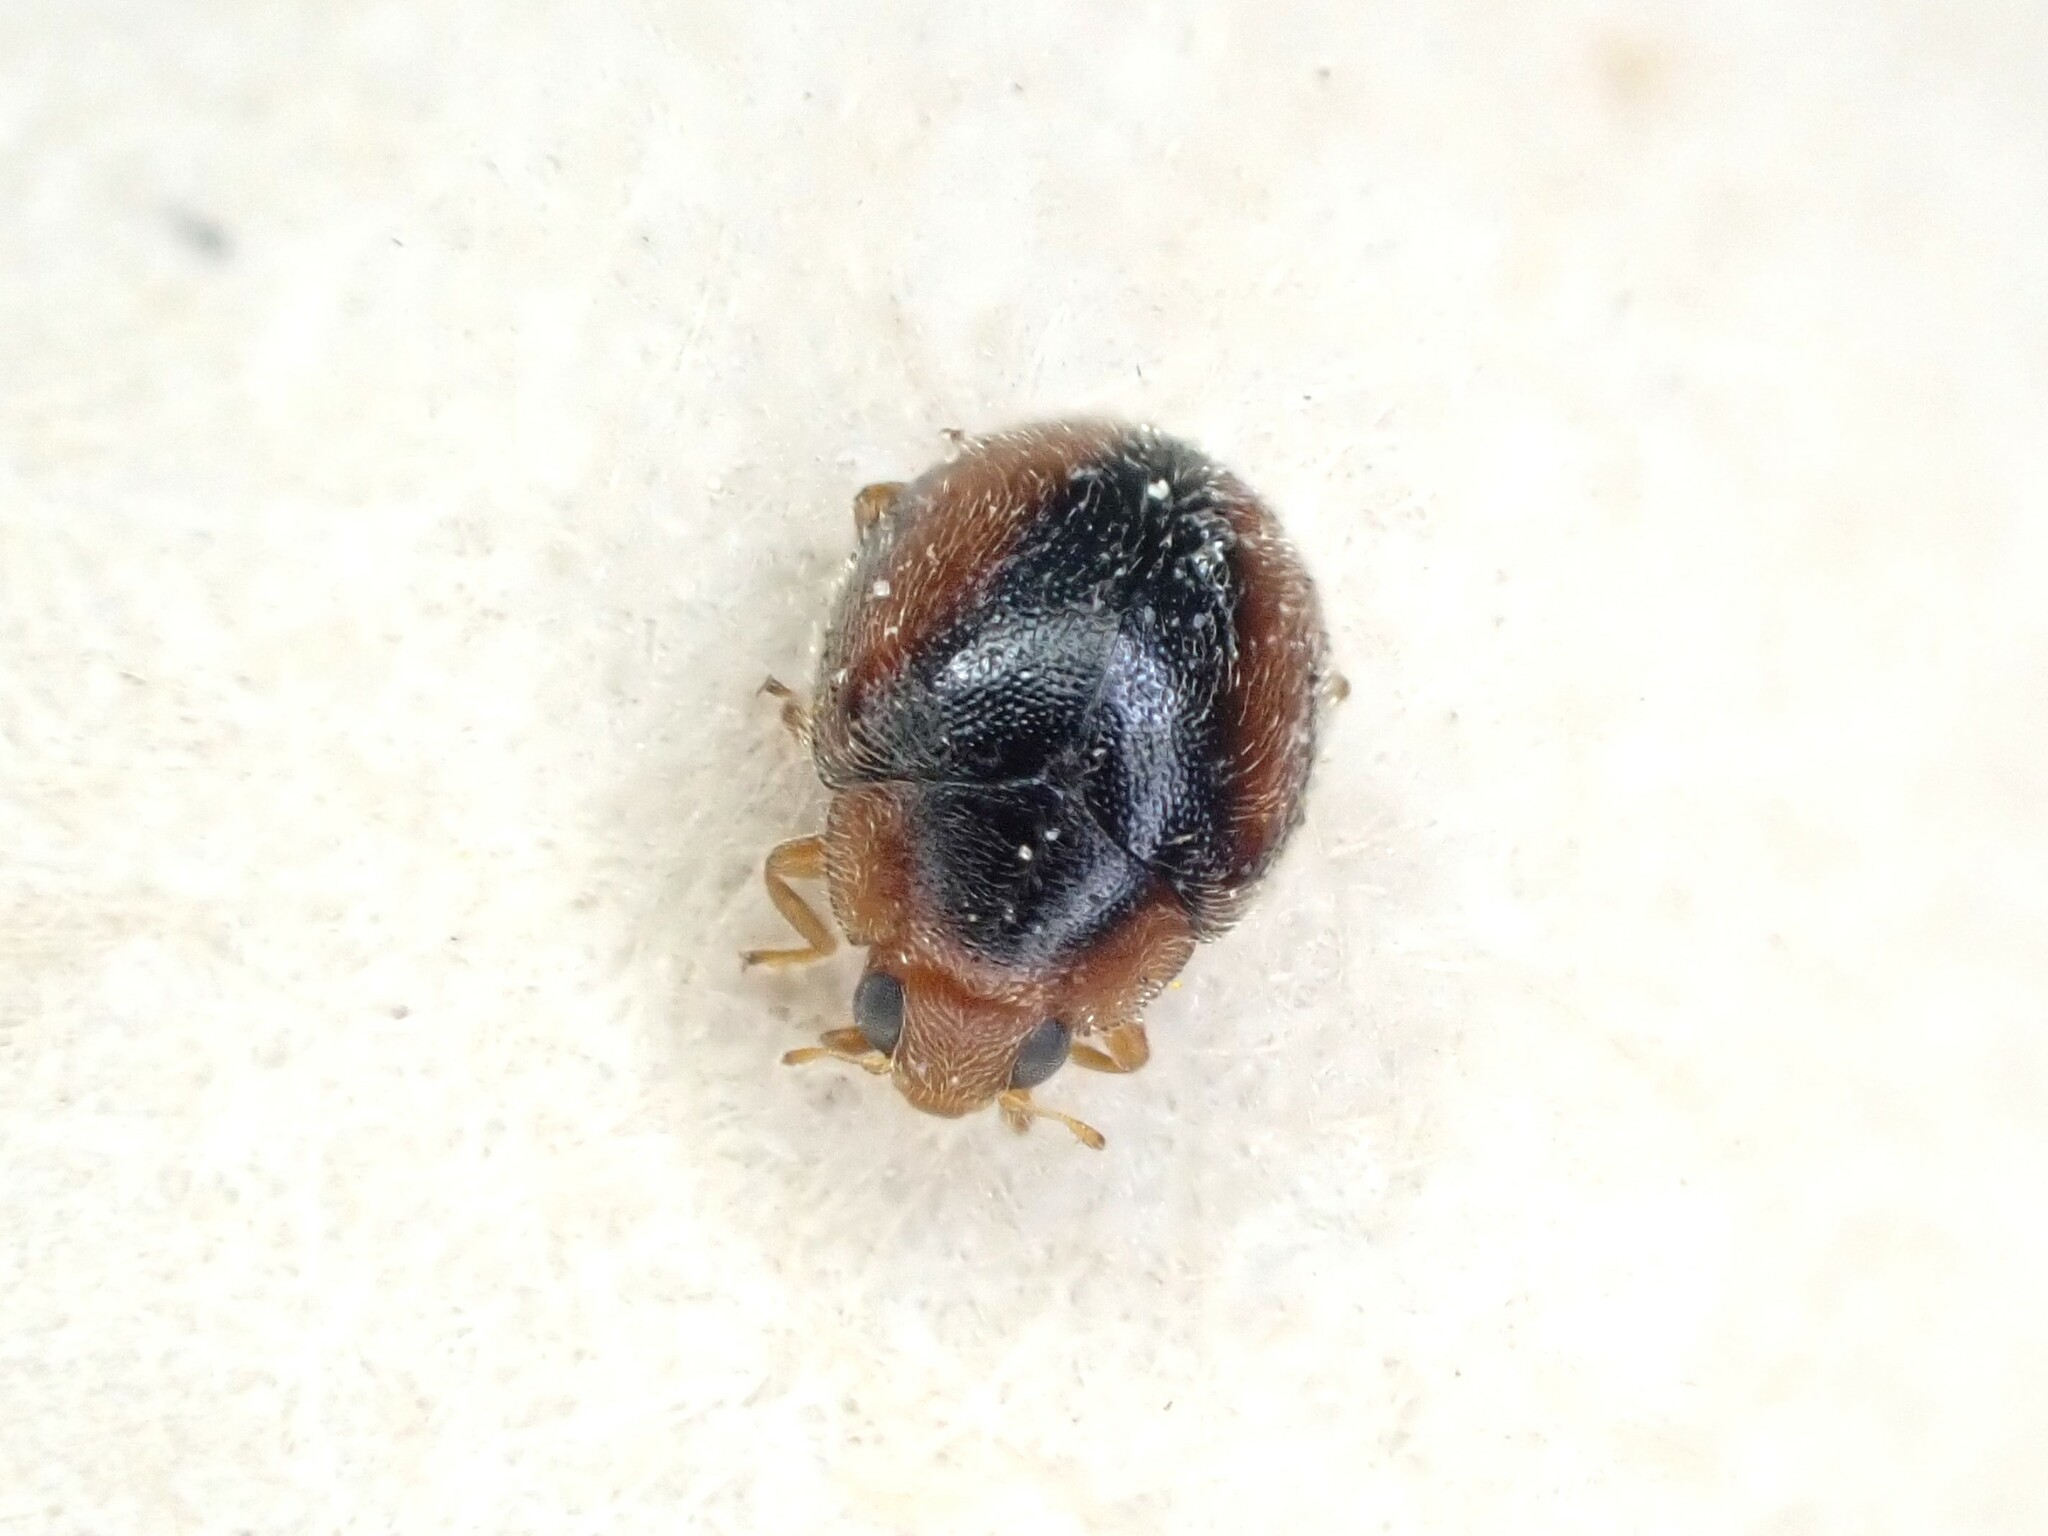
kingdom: Animalia
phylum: Arthropoda
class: Insecta
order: Coleoptera
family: Coccinellidae
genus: Scymnus
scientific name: Scymnus loewii
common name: Dusky lady beetle
